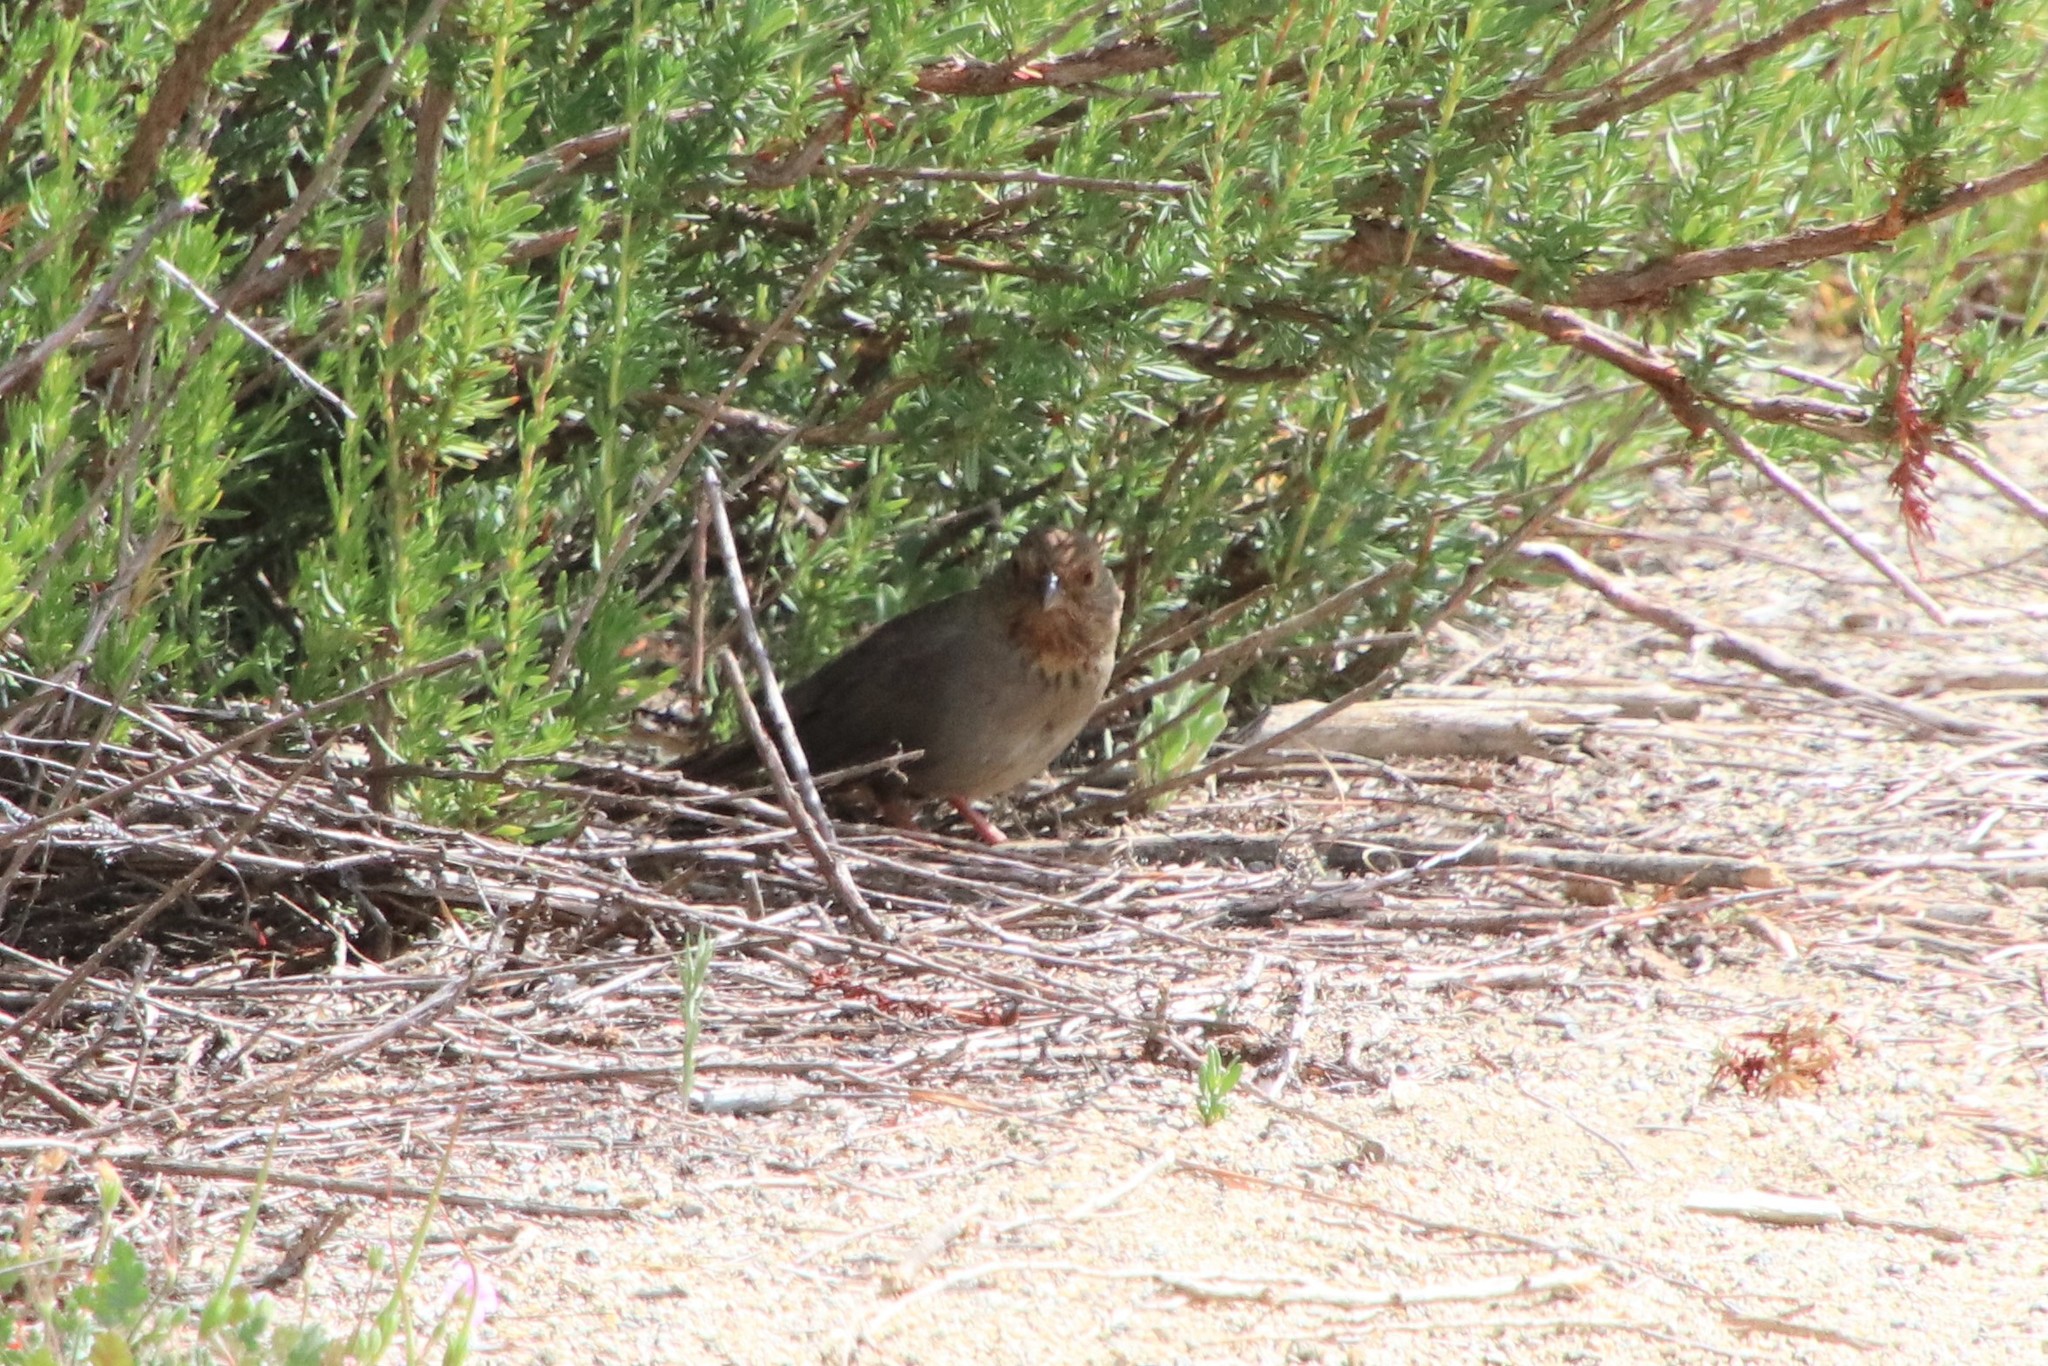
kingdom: Animalia
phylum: Chordata
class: Aves
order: Passeriformes
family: Passerellidae
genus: Melozone
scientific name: Melozone crissalis
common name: California towhee
